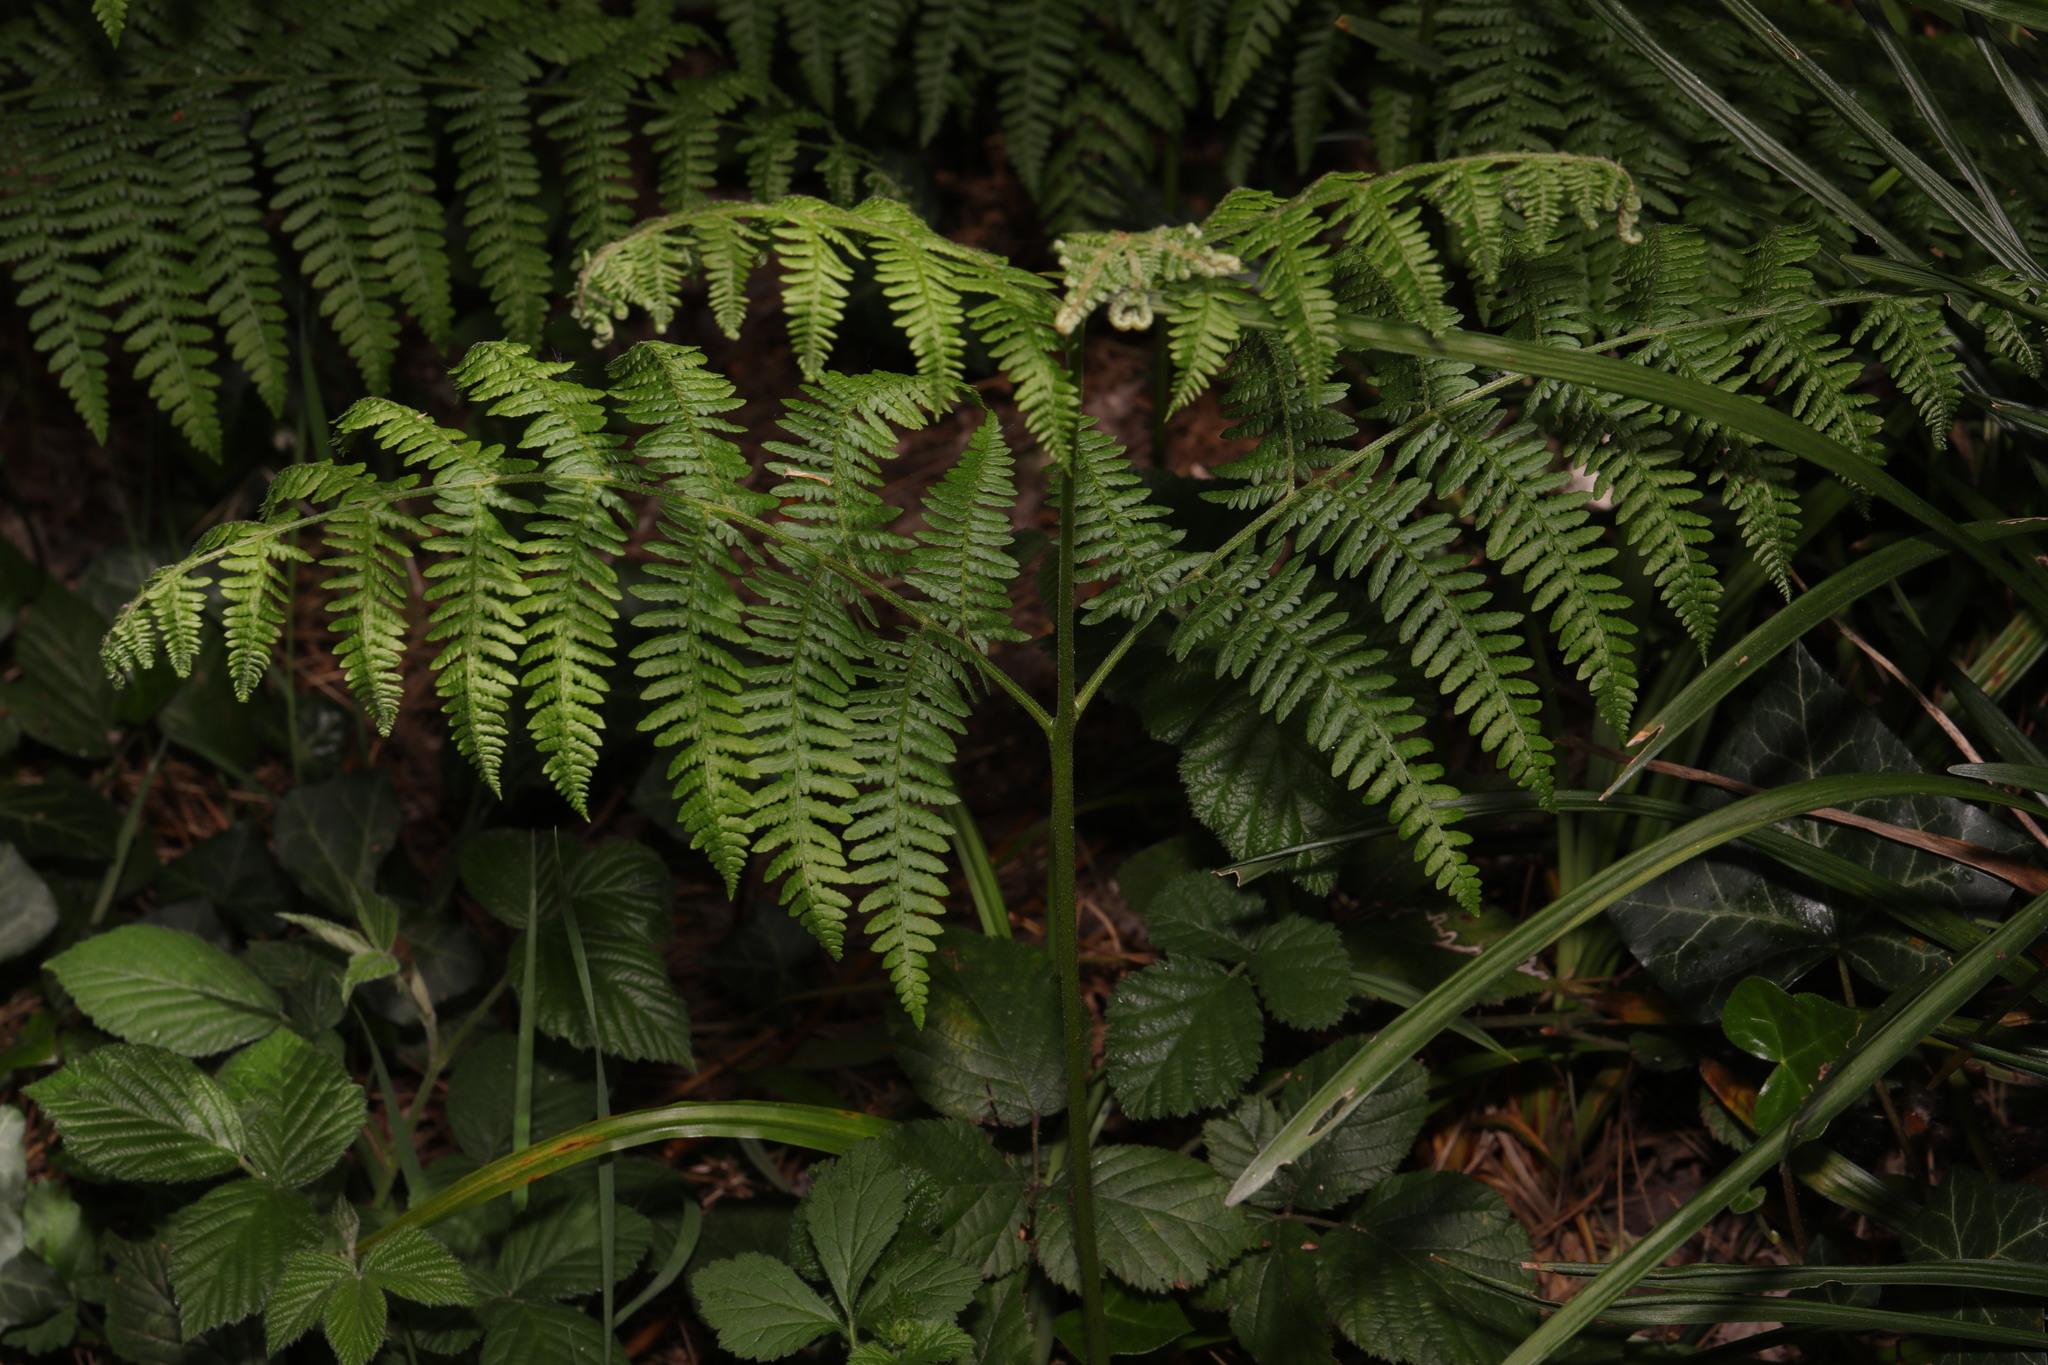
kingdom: Plantae
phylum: Tracheophyta
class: Polypodiopsida
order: Polypodiales
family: Dennstaedtiaceae
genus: Pteridium
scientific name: Pteridium aquilinum
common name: Bracken
